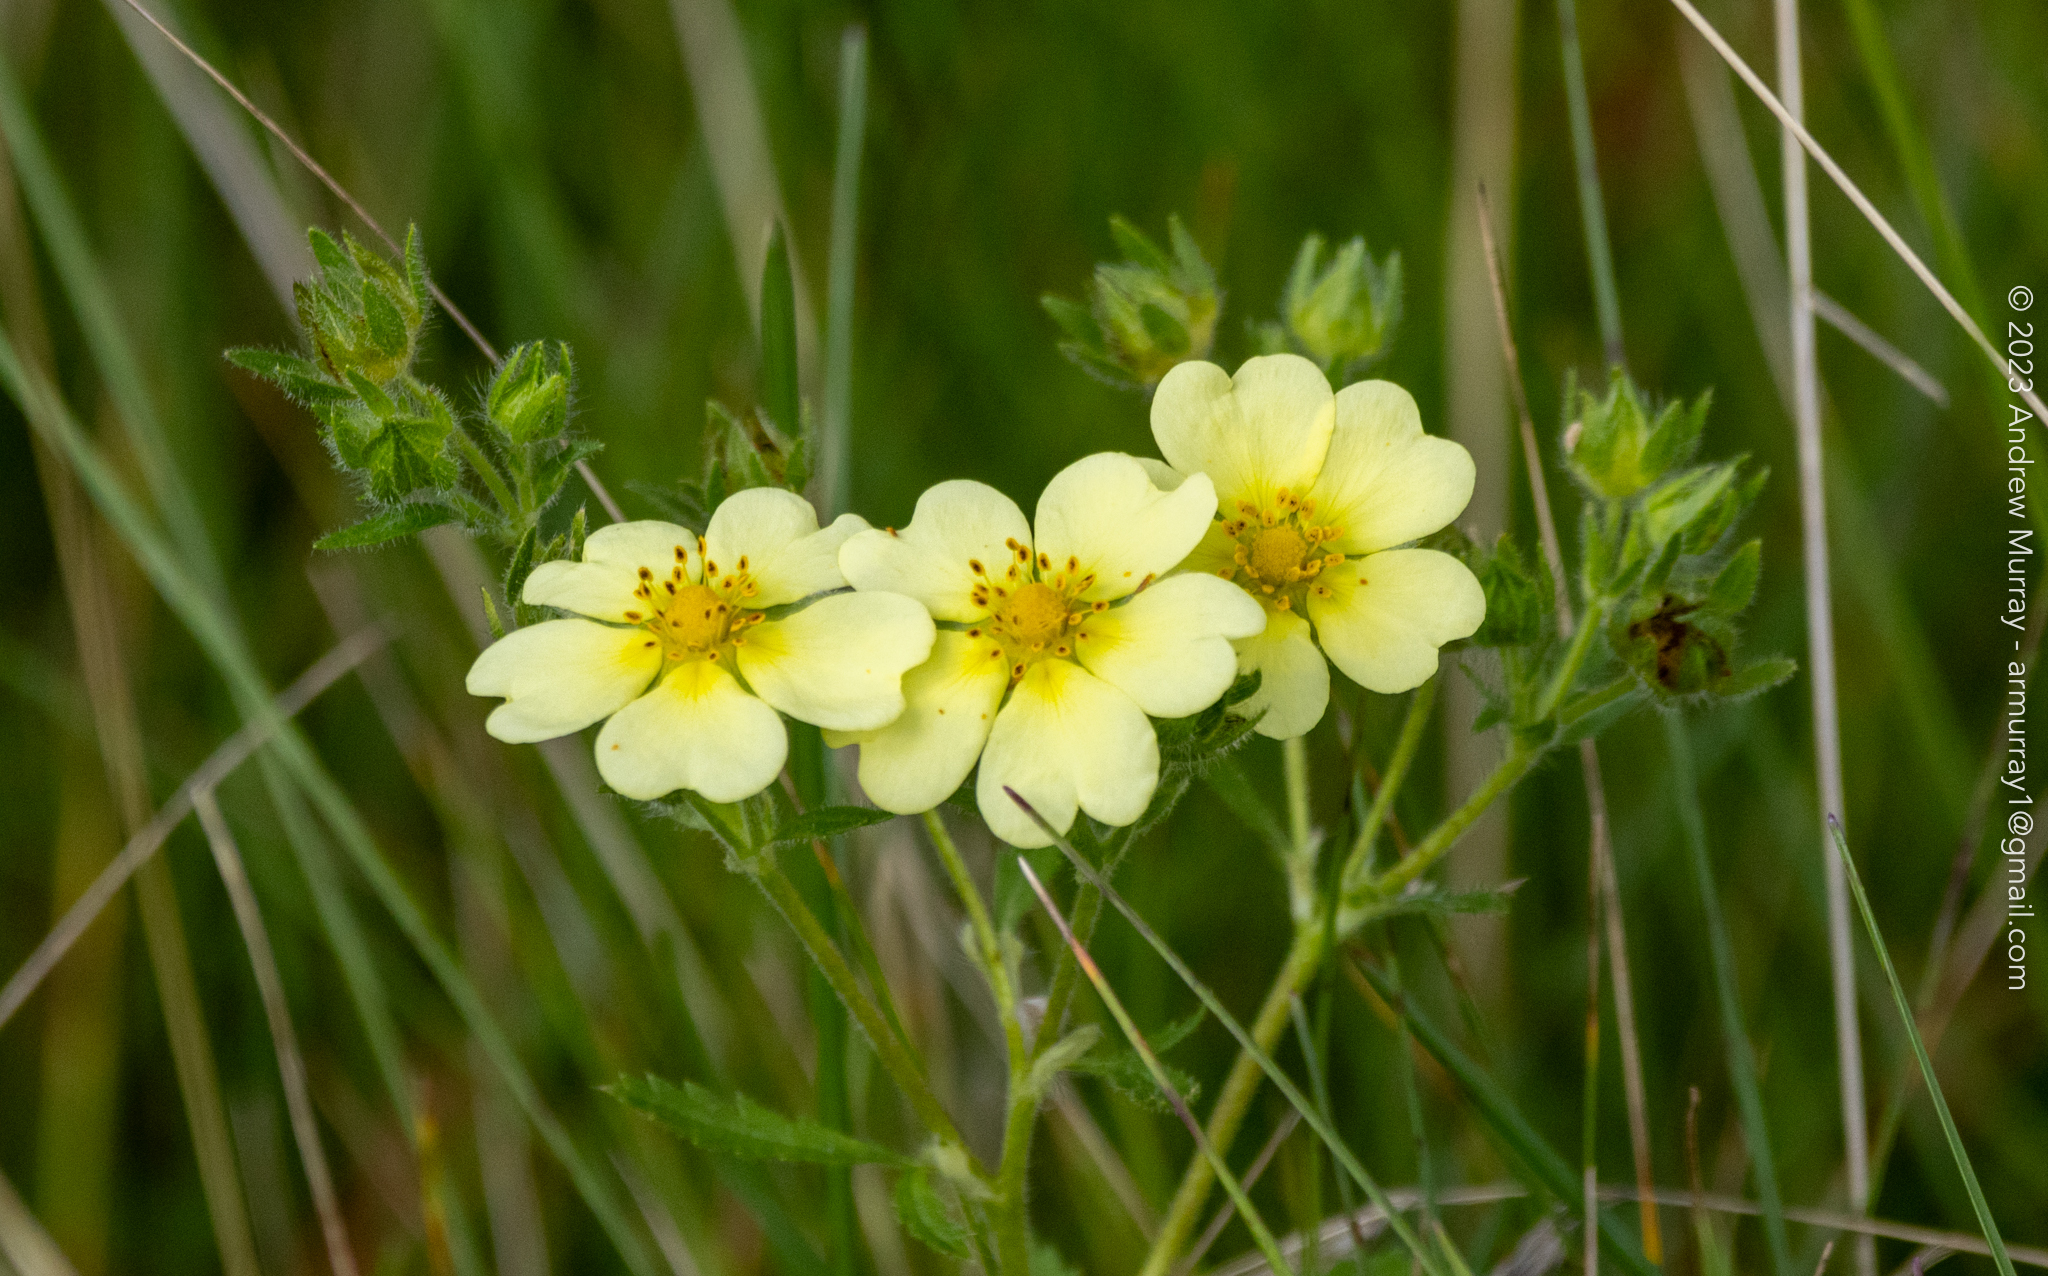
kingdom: Plantae
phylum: Tracheophyta
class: Magnoliopsida
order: Rosales
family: Rosaceae
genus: Potentilla
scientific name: Potentilla recta
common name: Sulphur cinquefoil
